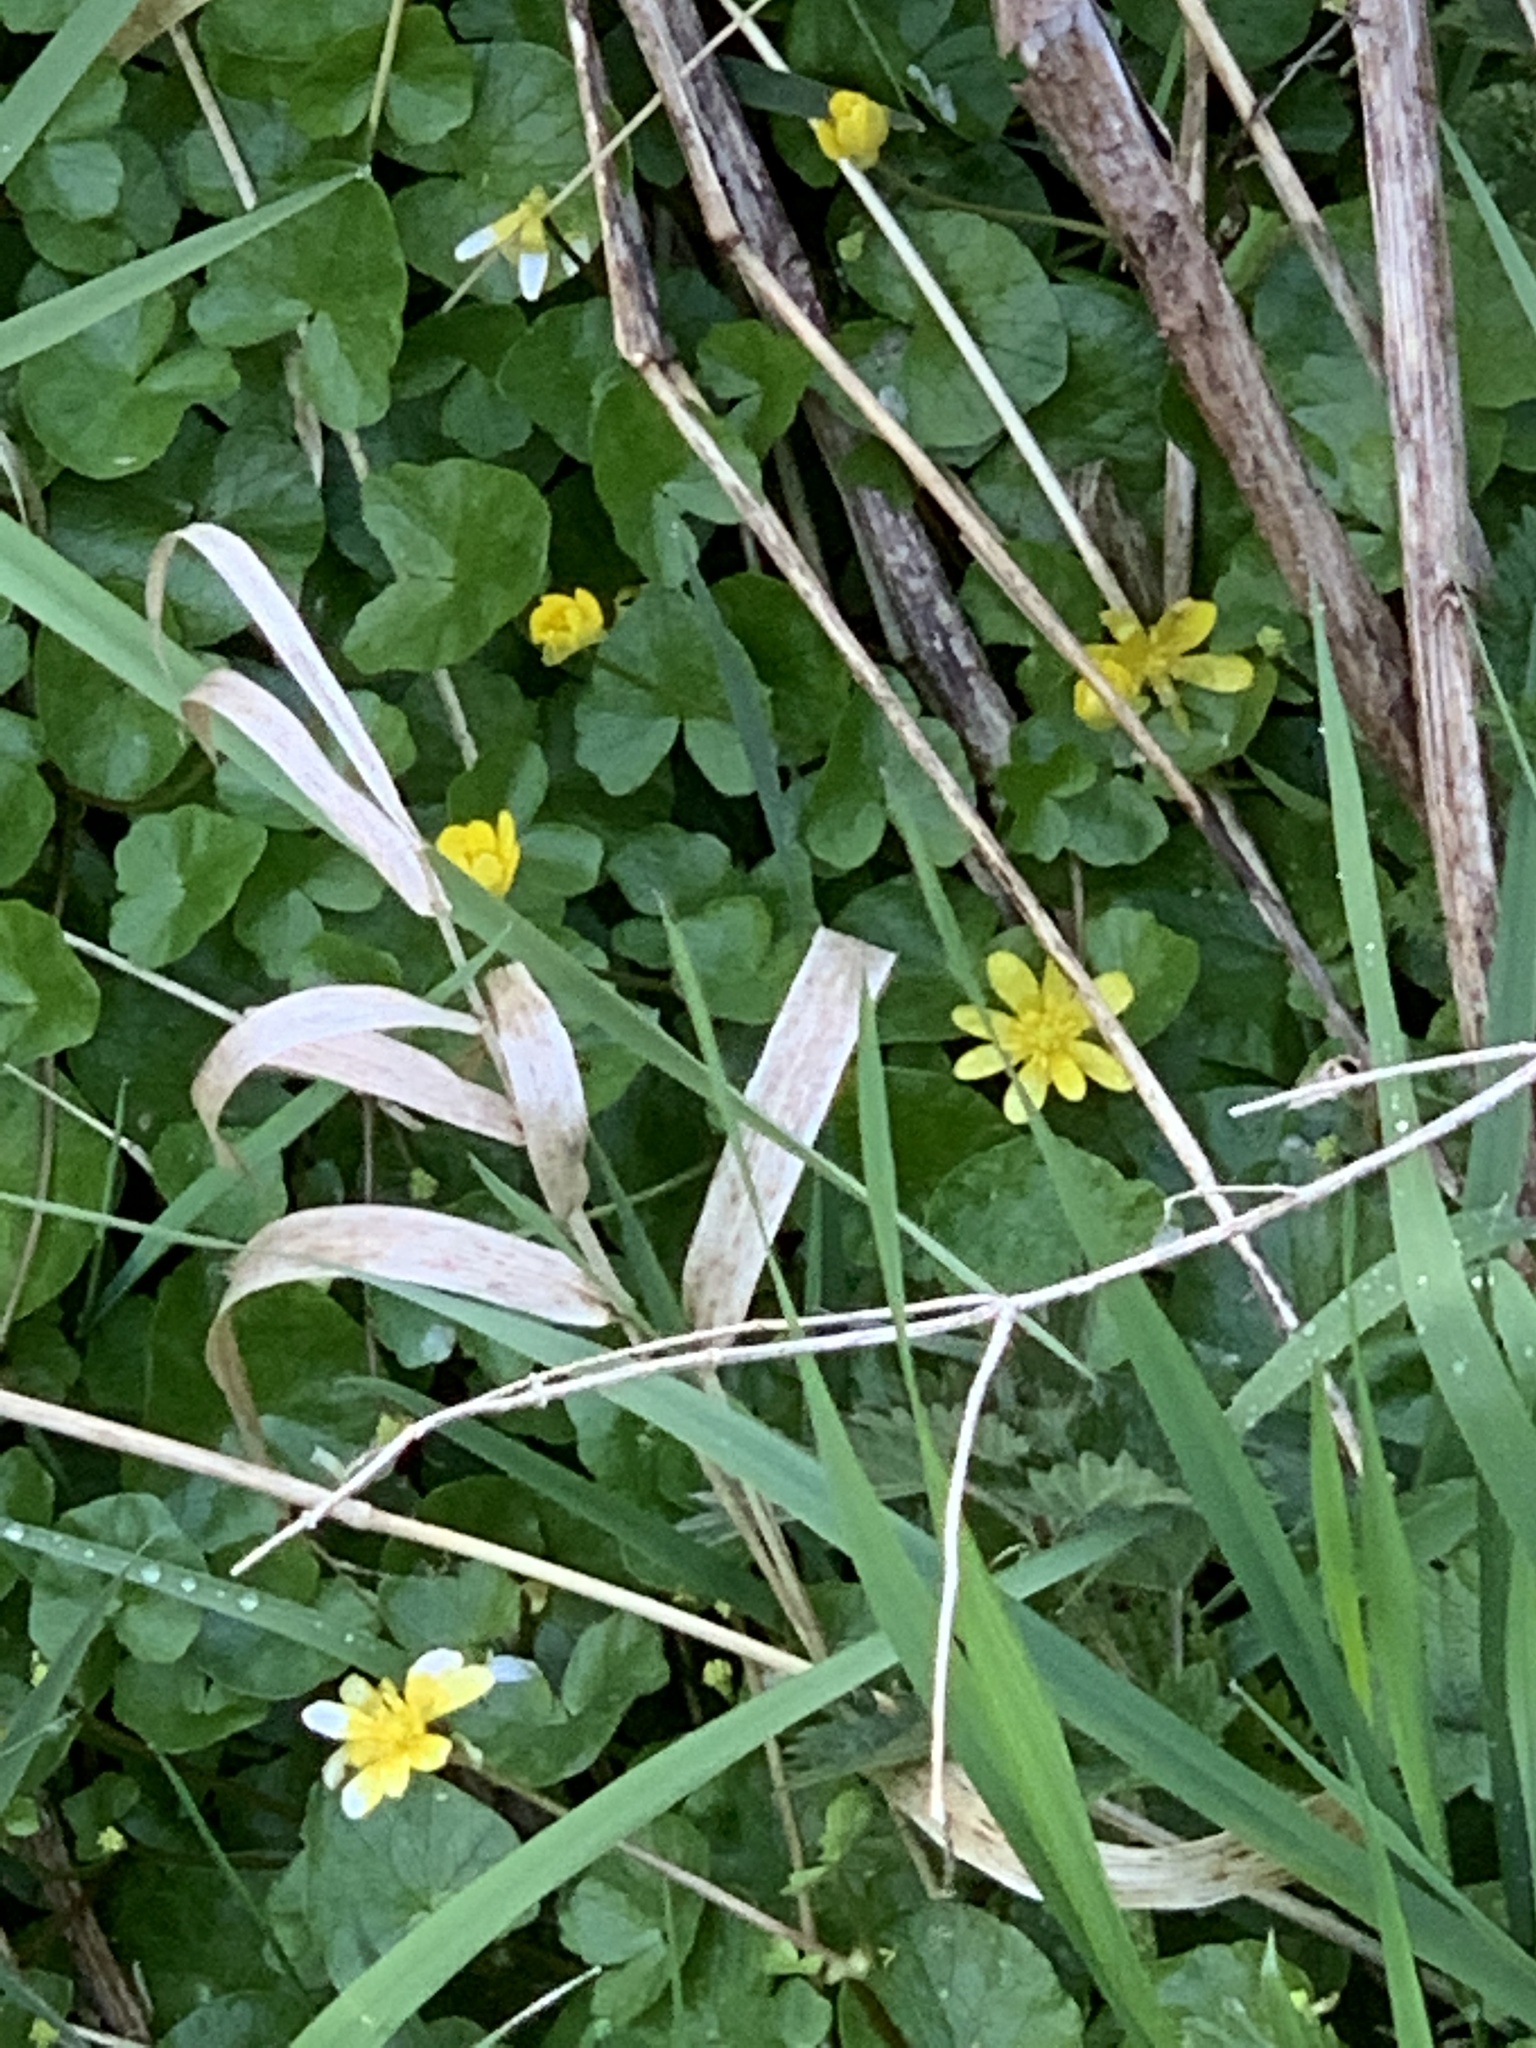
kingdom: Plantae
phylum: Tracheophyta
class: Magnoliopsida
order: Ranunculales
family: Ranunculaceae
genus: Ficaria
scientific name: Ficaria verna
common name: Lesser celandine
